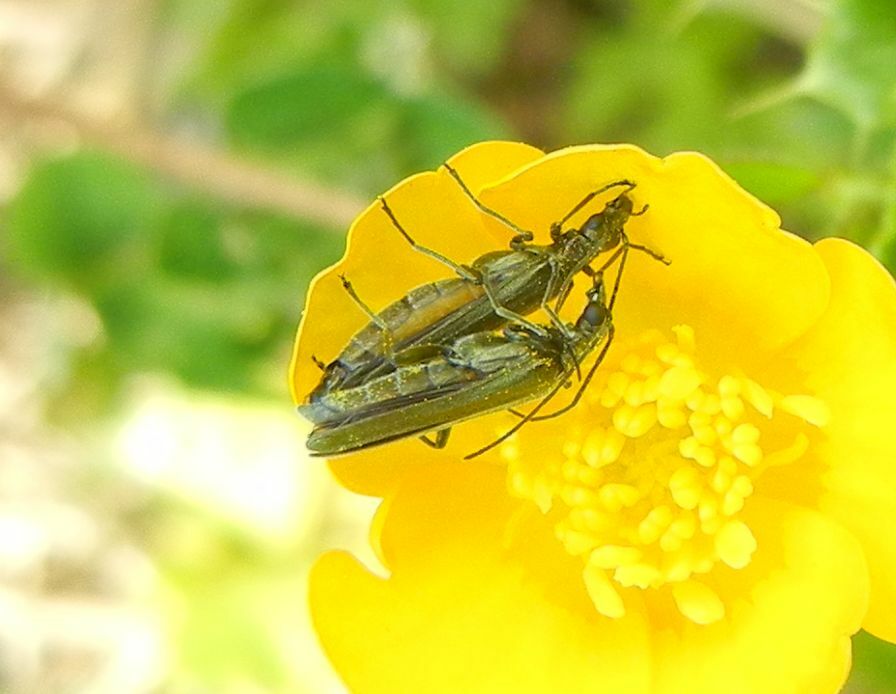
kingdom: Animalia
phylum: Arthropoda
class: Insecta
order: Coleoptera
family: Oedemeridae
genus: Oedemera
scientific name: Oedemera lurida
